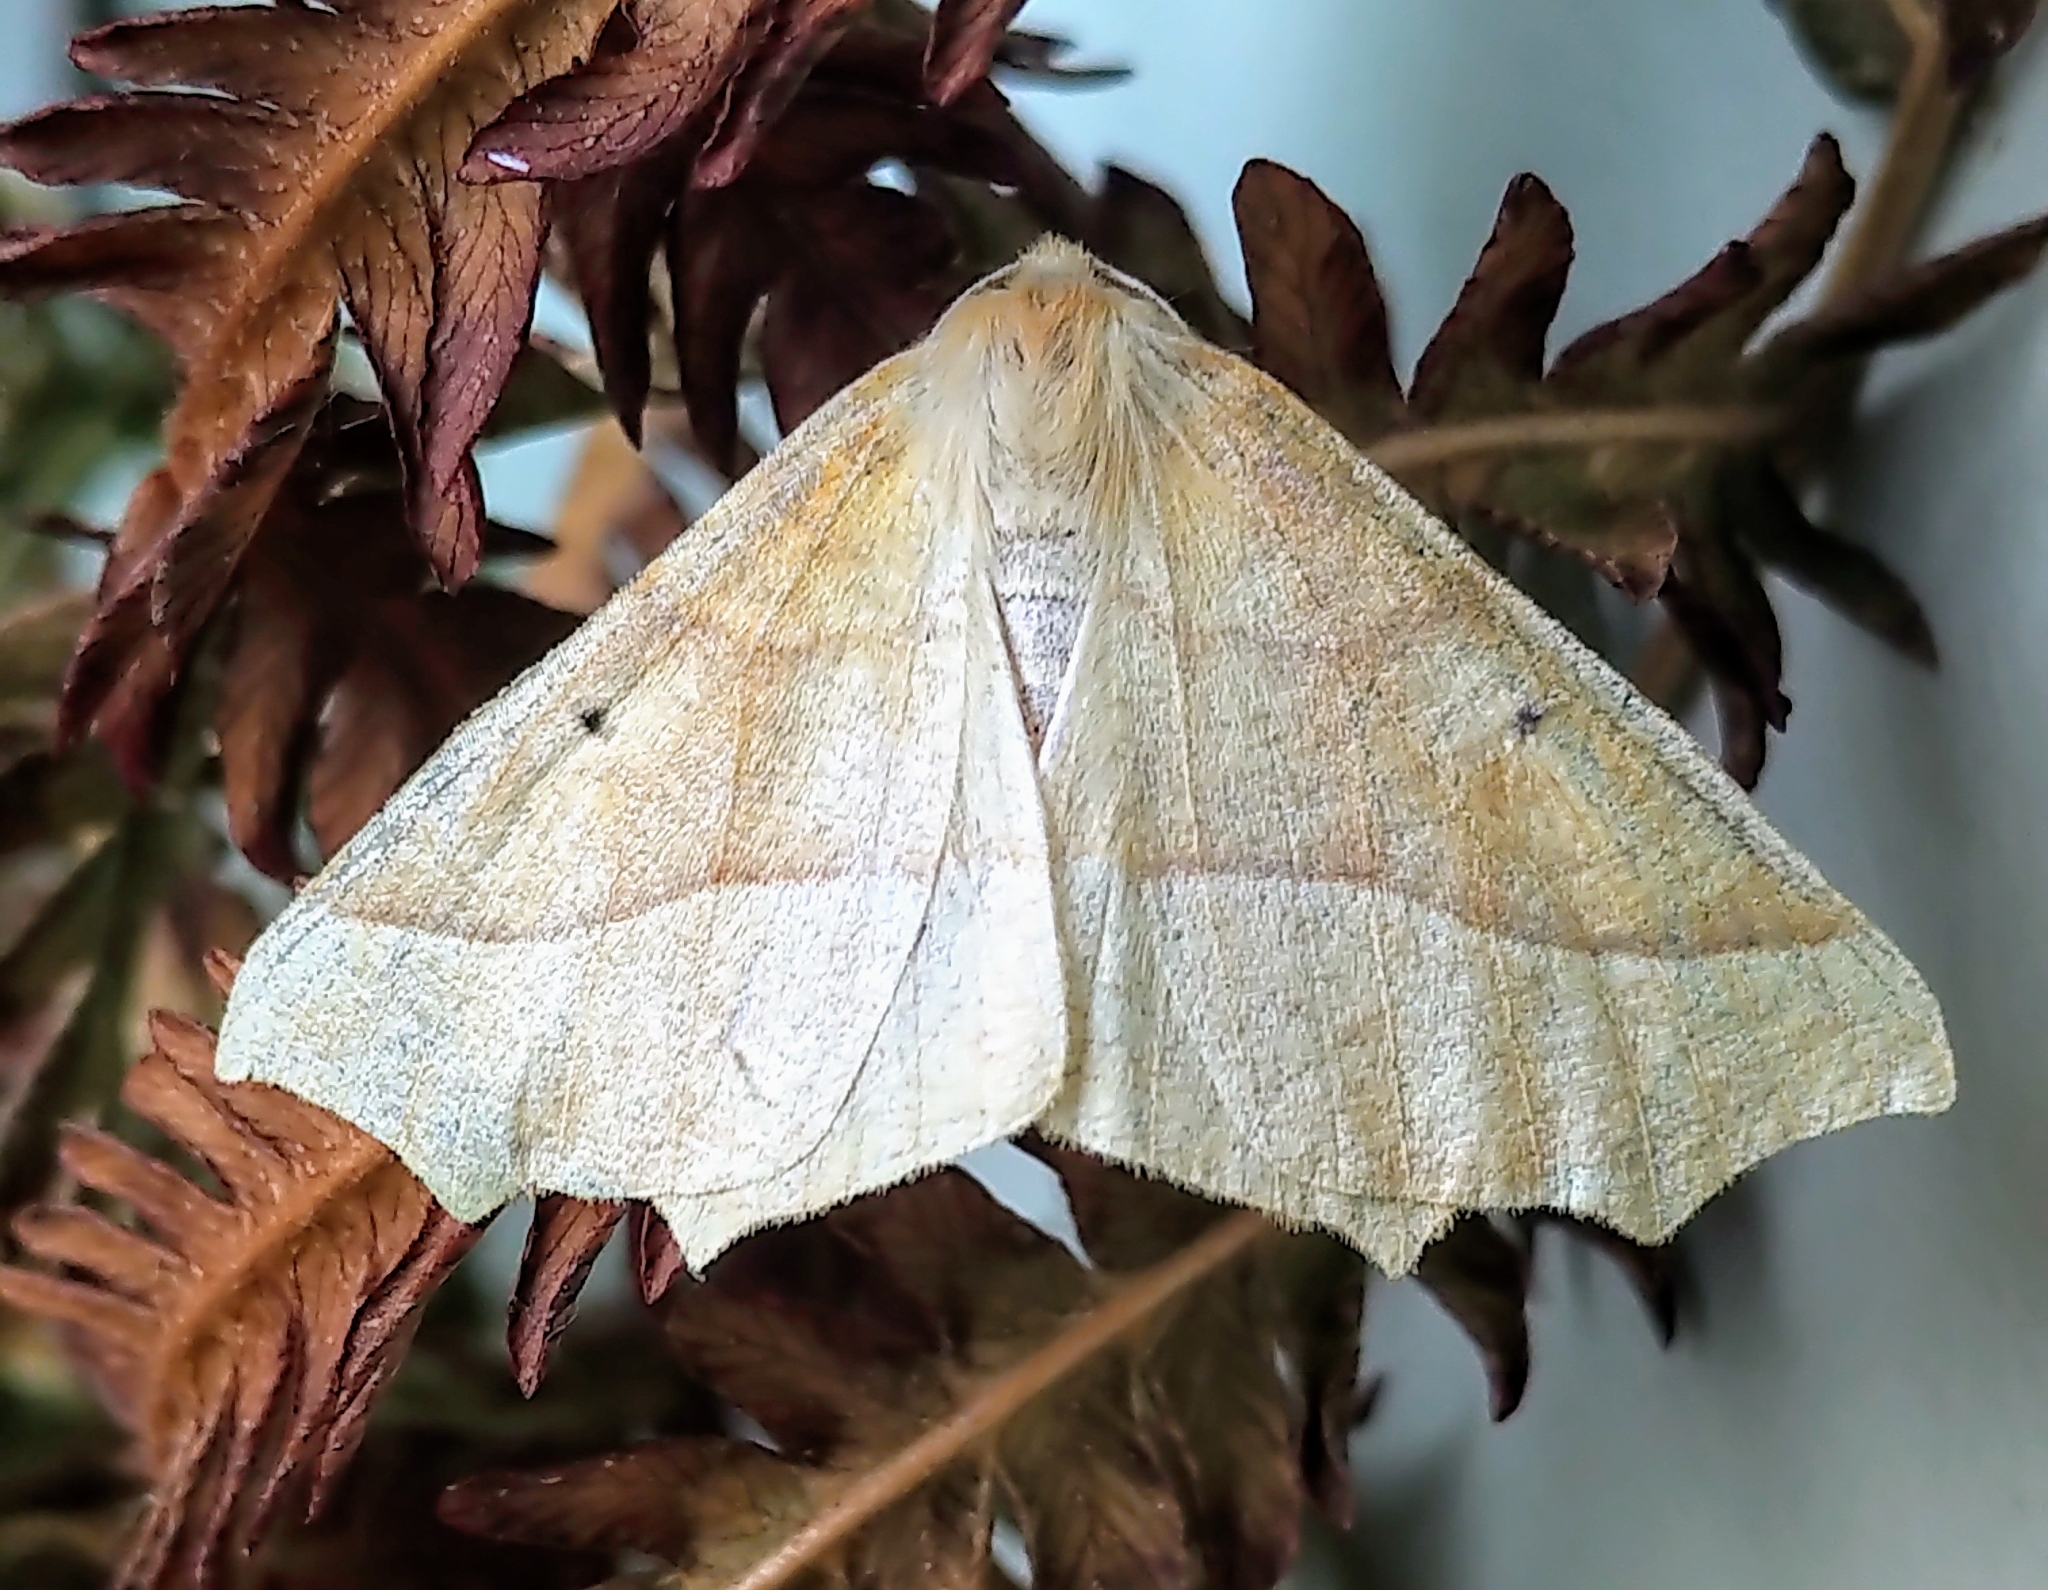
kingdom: Animalia
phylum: Arthropoda
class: Insecta
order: Lepidoptera
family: Geometridae
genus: Synaxis
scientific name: Synaxis jubararia
